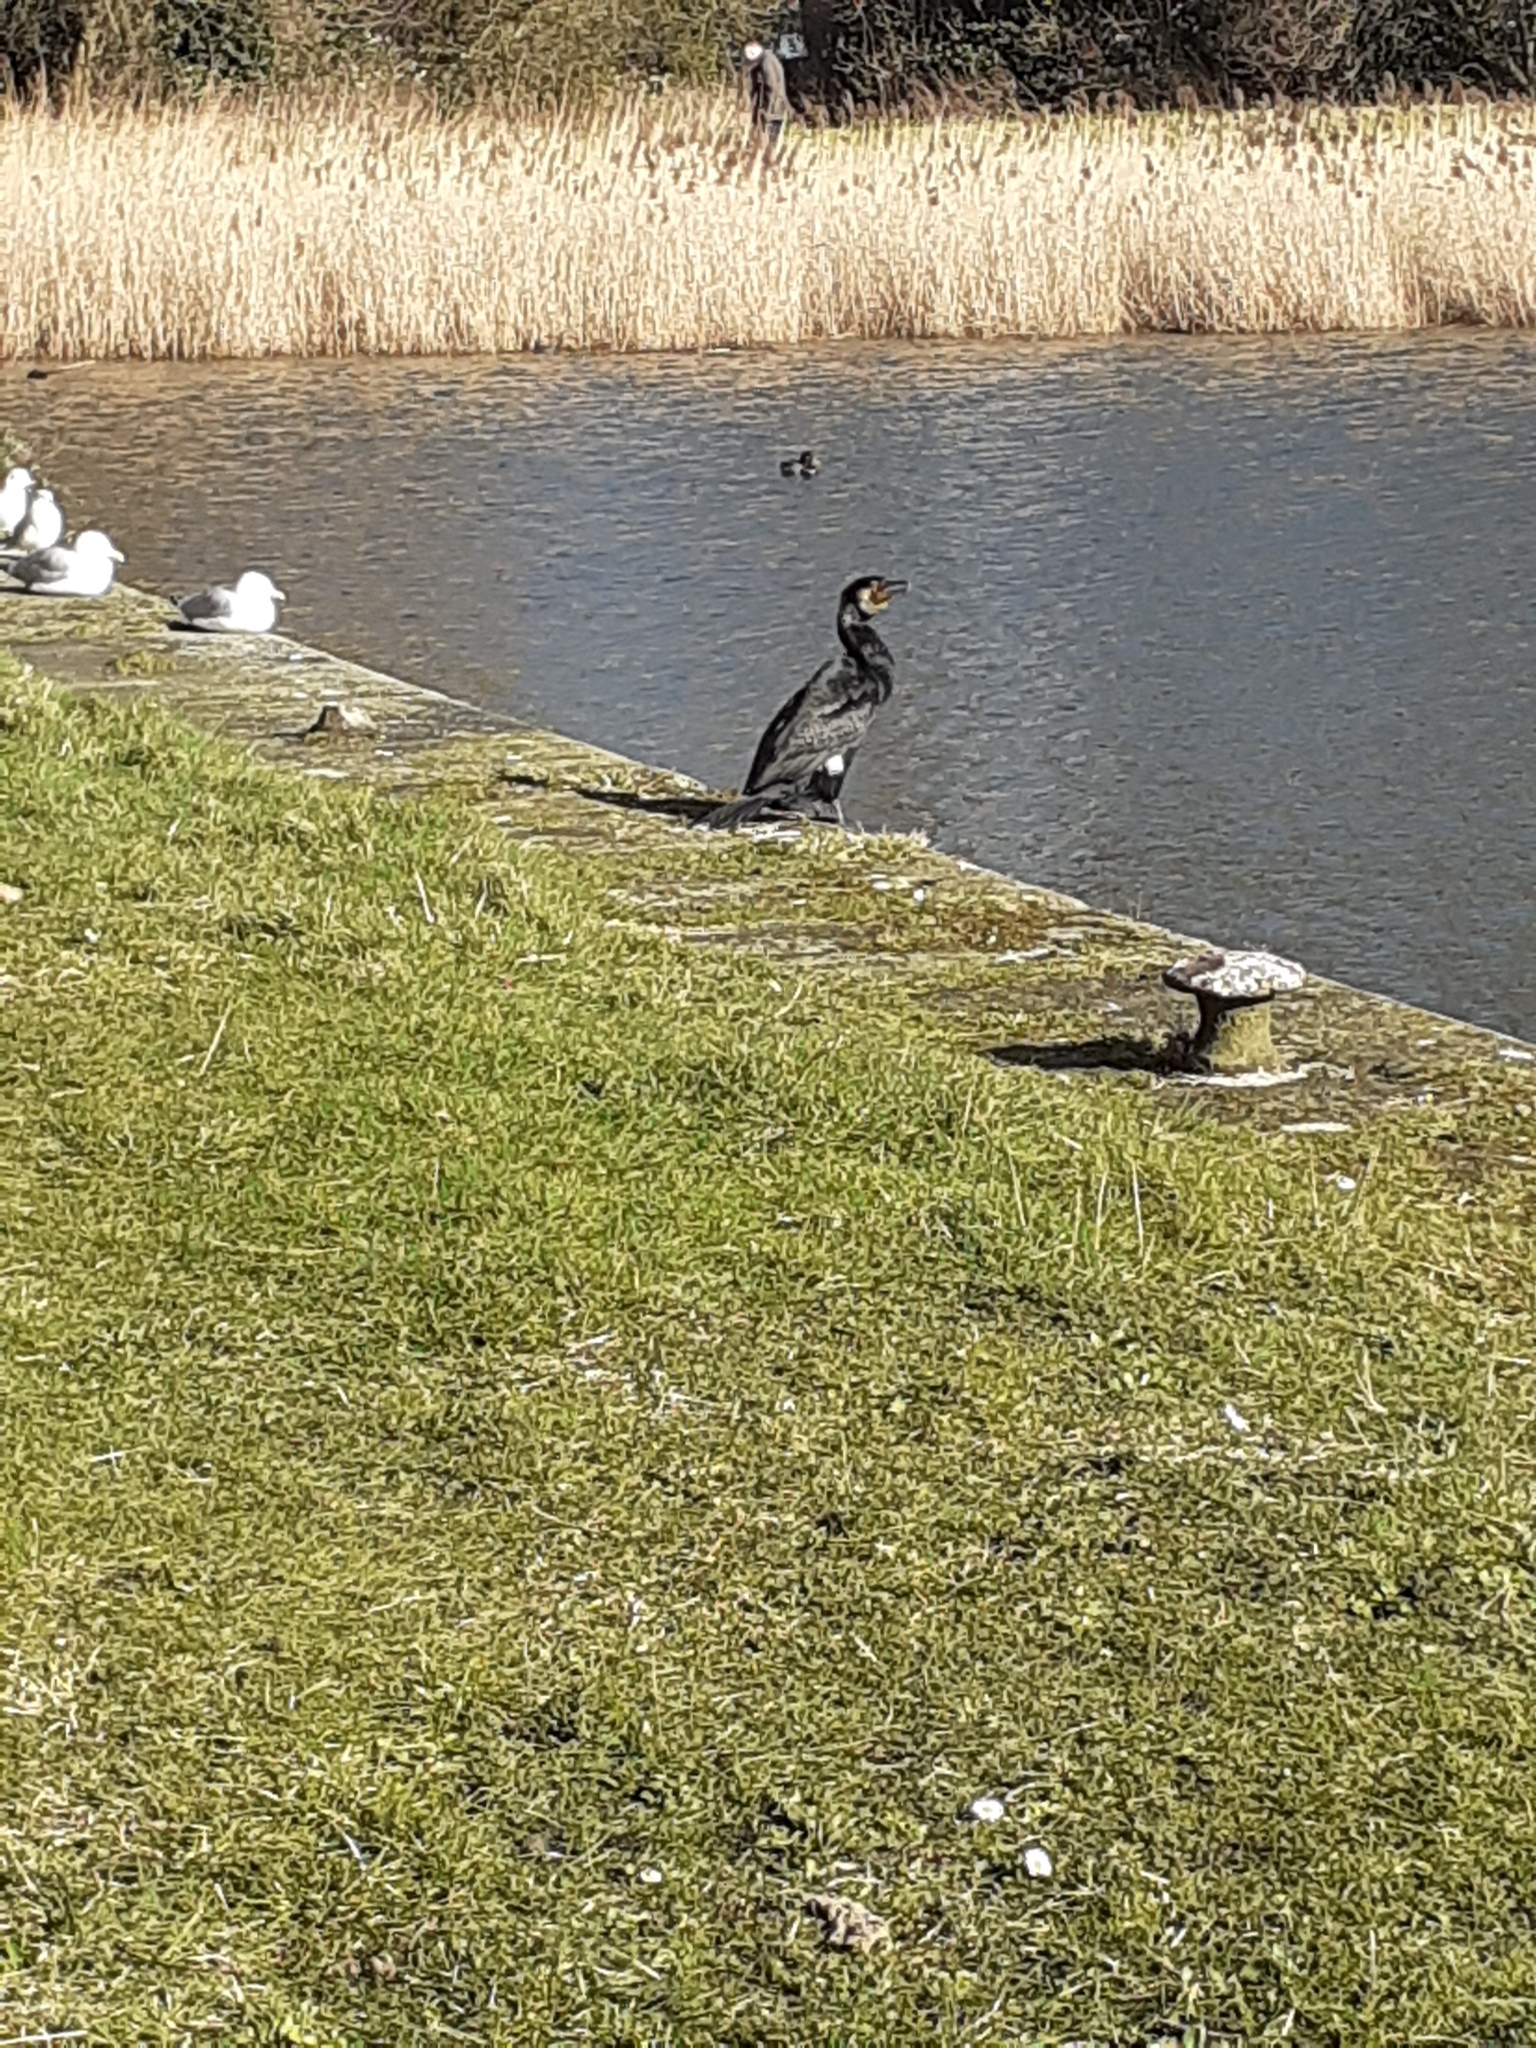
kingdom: Animalia
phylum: Chordata
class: Aves
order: Suliformes
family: Phalacrocoracidae
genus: Phalacrocorax
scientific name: Phalacrocorax carbo
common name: Great cormorant
